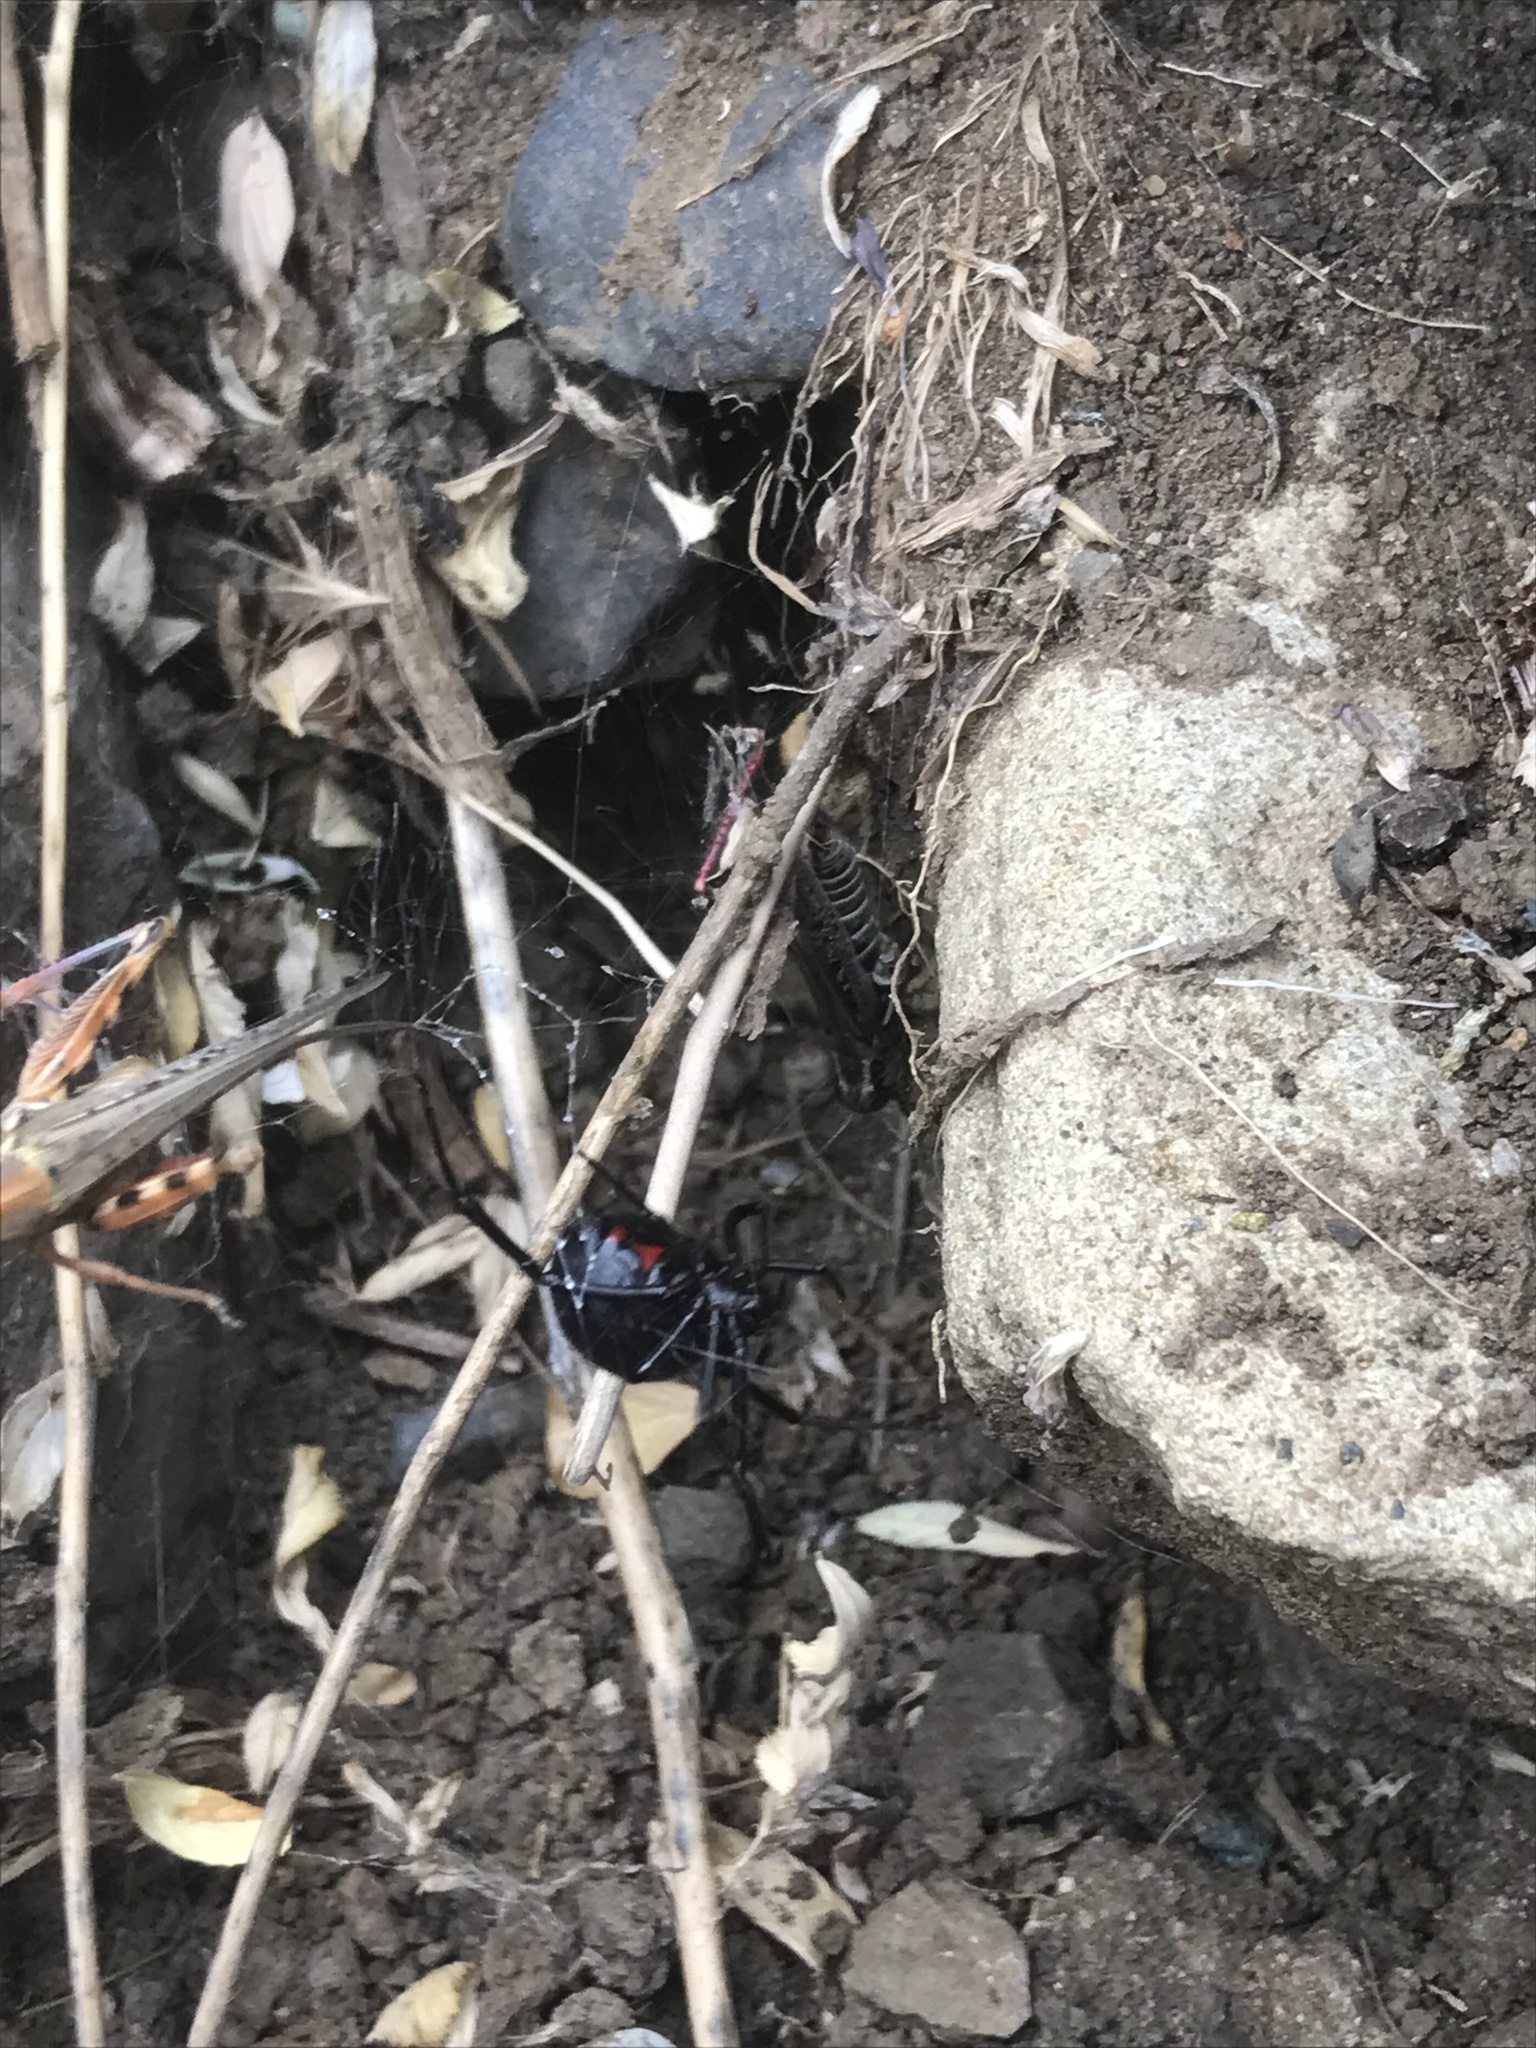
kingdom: Animalia
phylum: Arthropoda
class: Arachnida
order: Araneae
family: Theridiidae
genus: Latrodectus
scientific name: Latrodectus hesperus
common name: Western black widow
